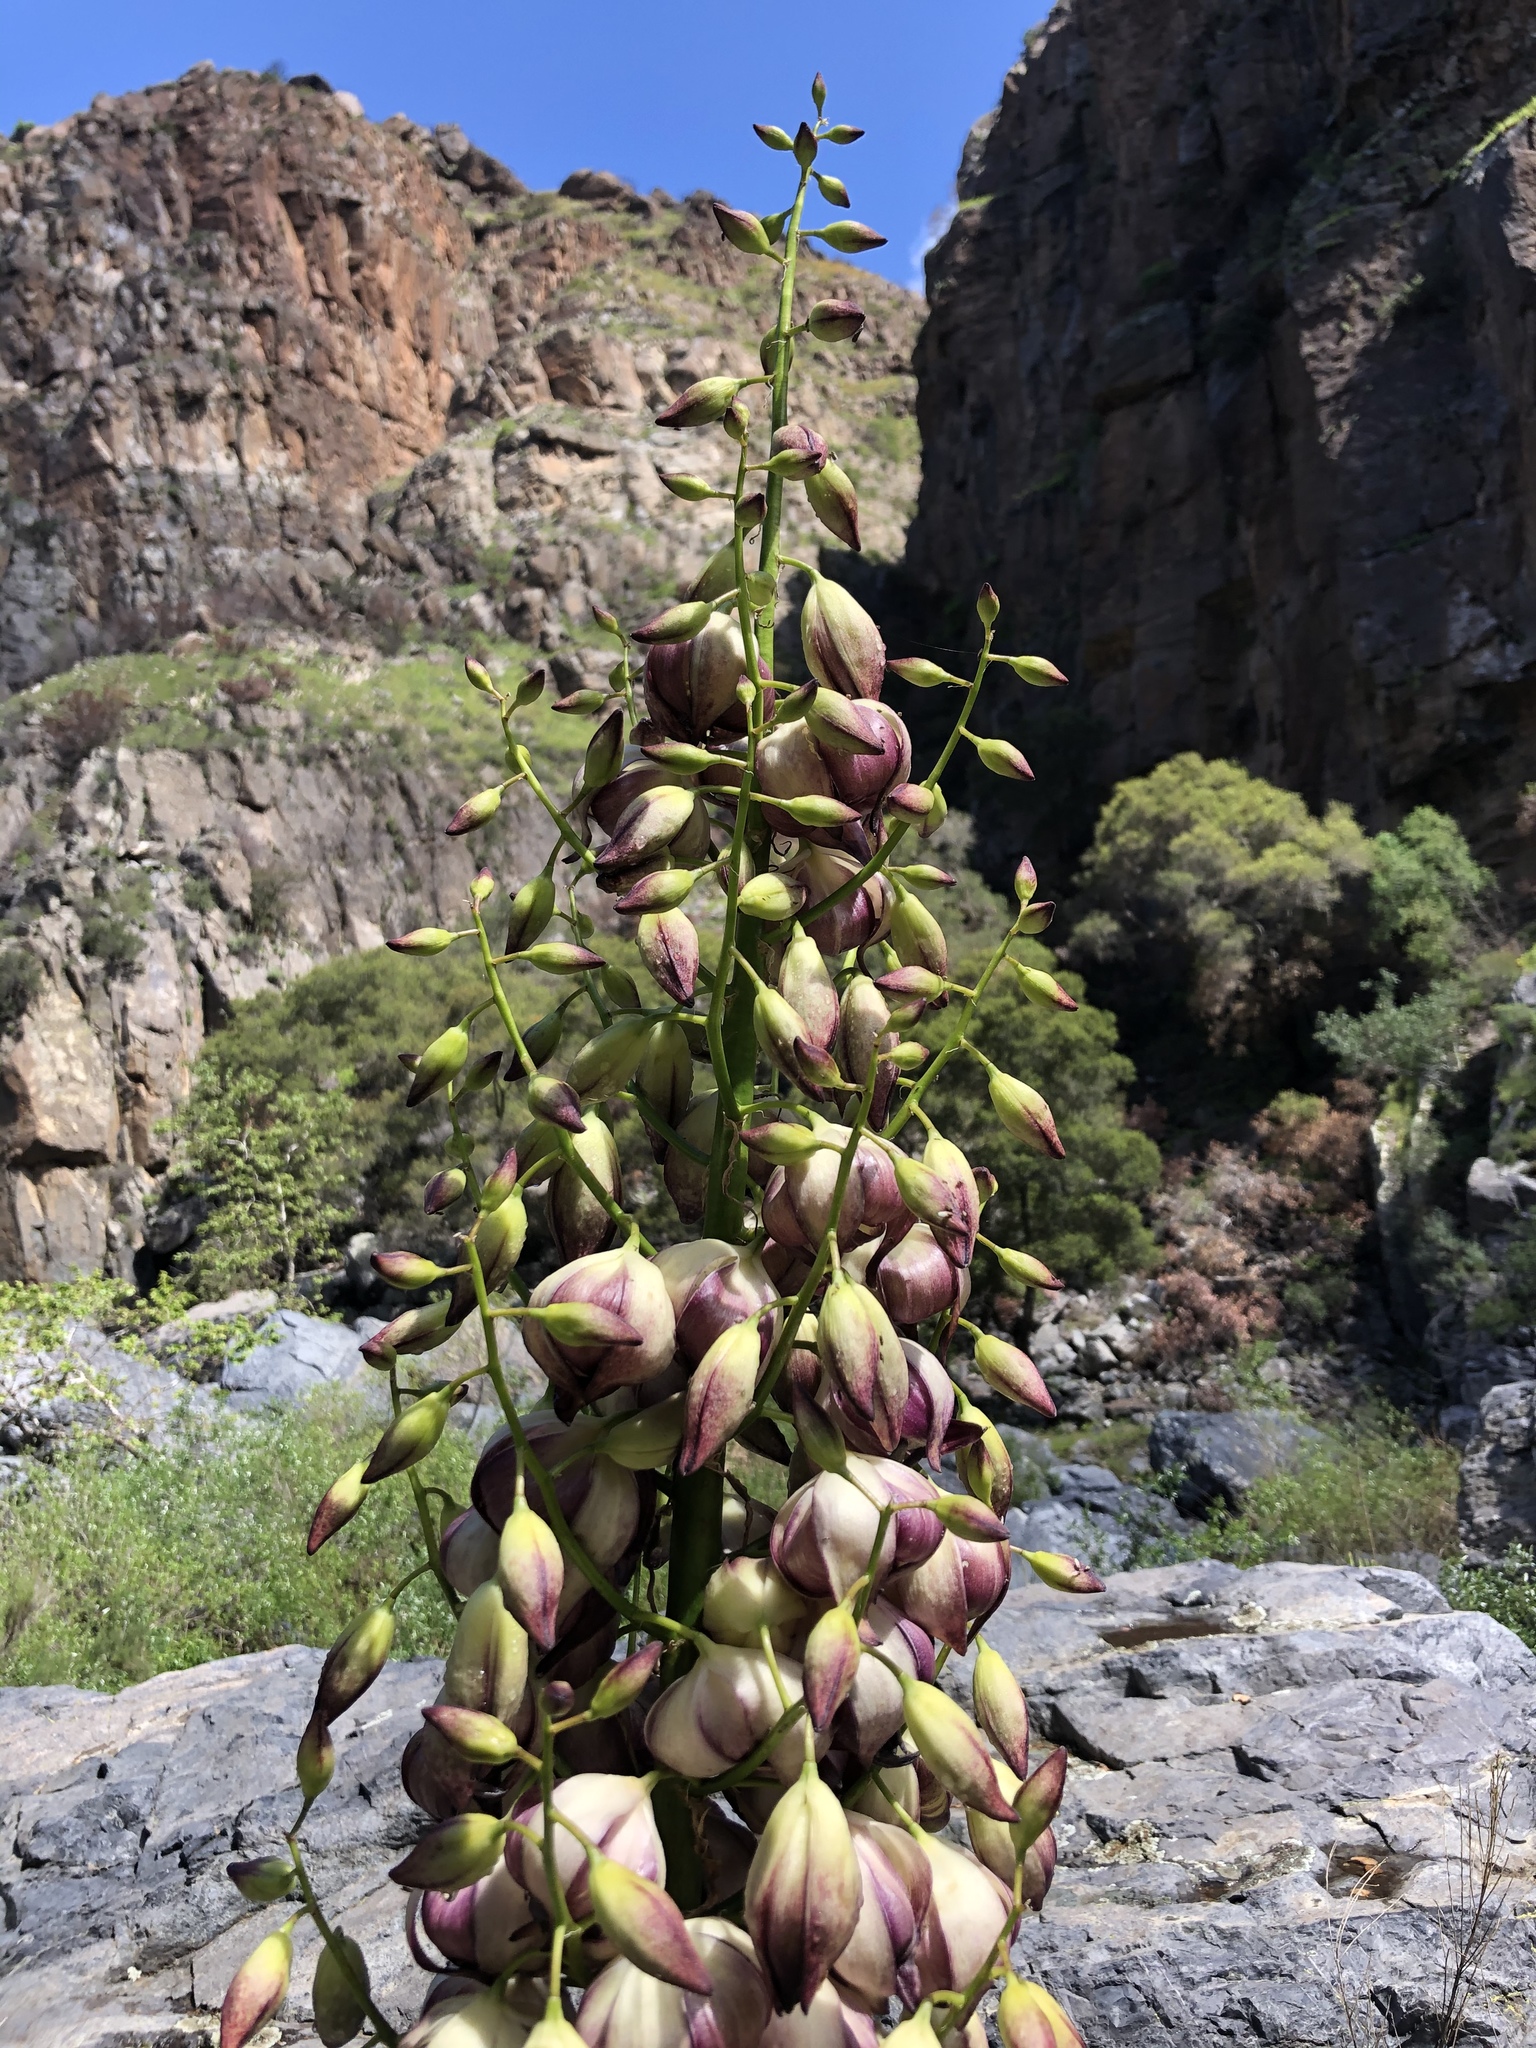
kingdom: Plantae
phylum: Tracheophyta
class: Liliopsida
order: Asparagales
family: Asparagaceae
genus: Hesperoyucca
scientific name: Hesperoyucca whipplei
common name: Our lord's-candle
